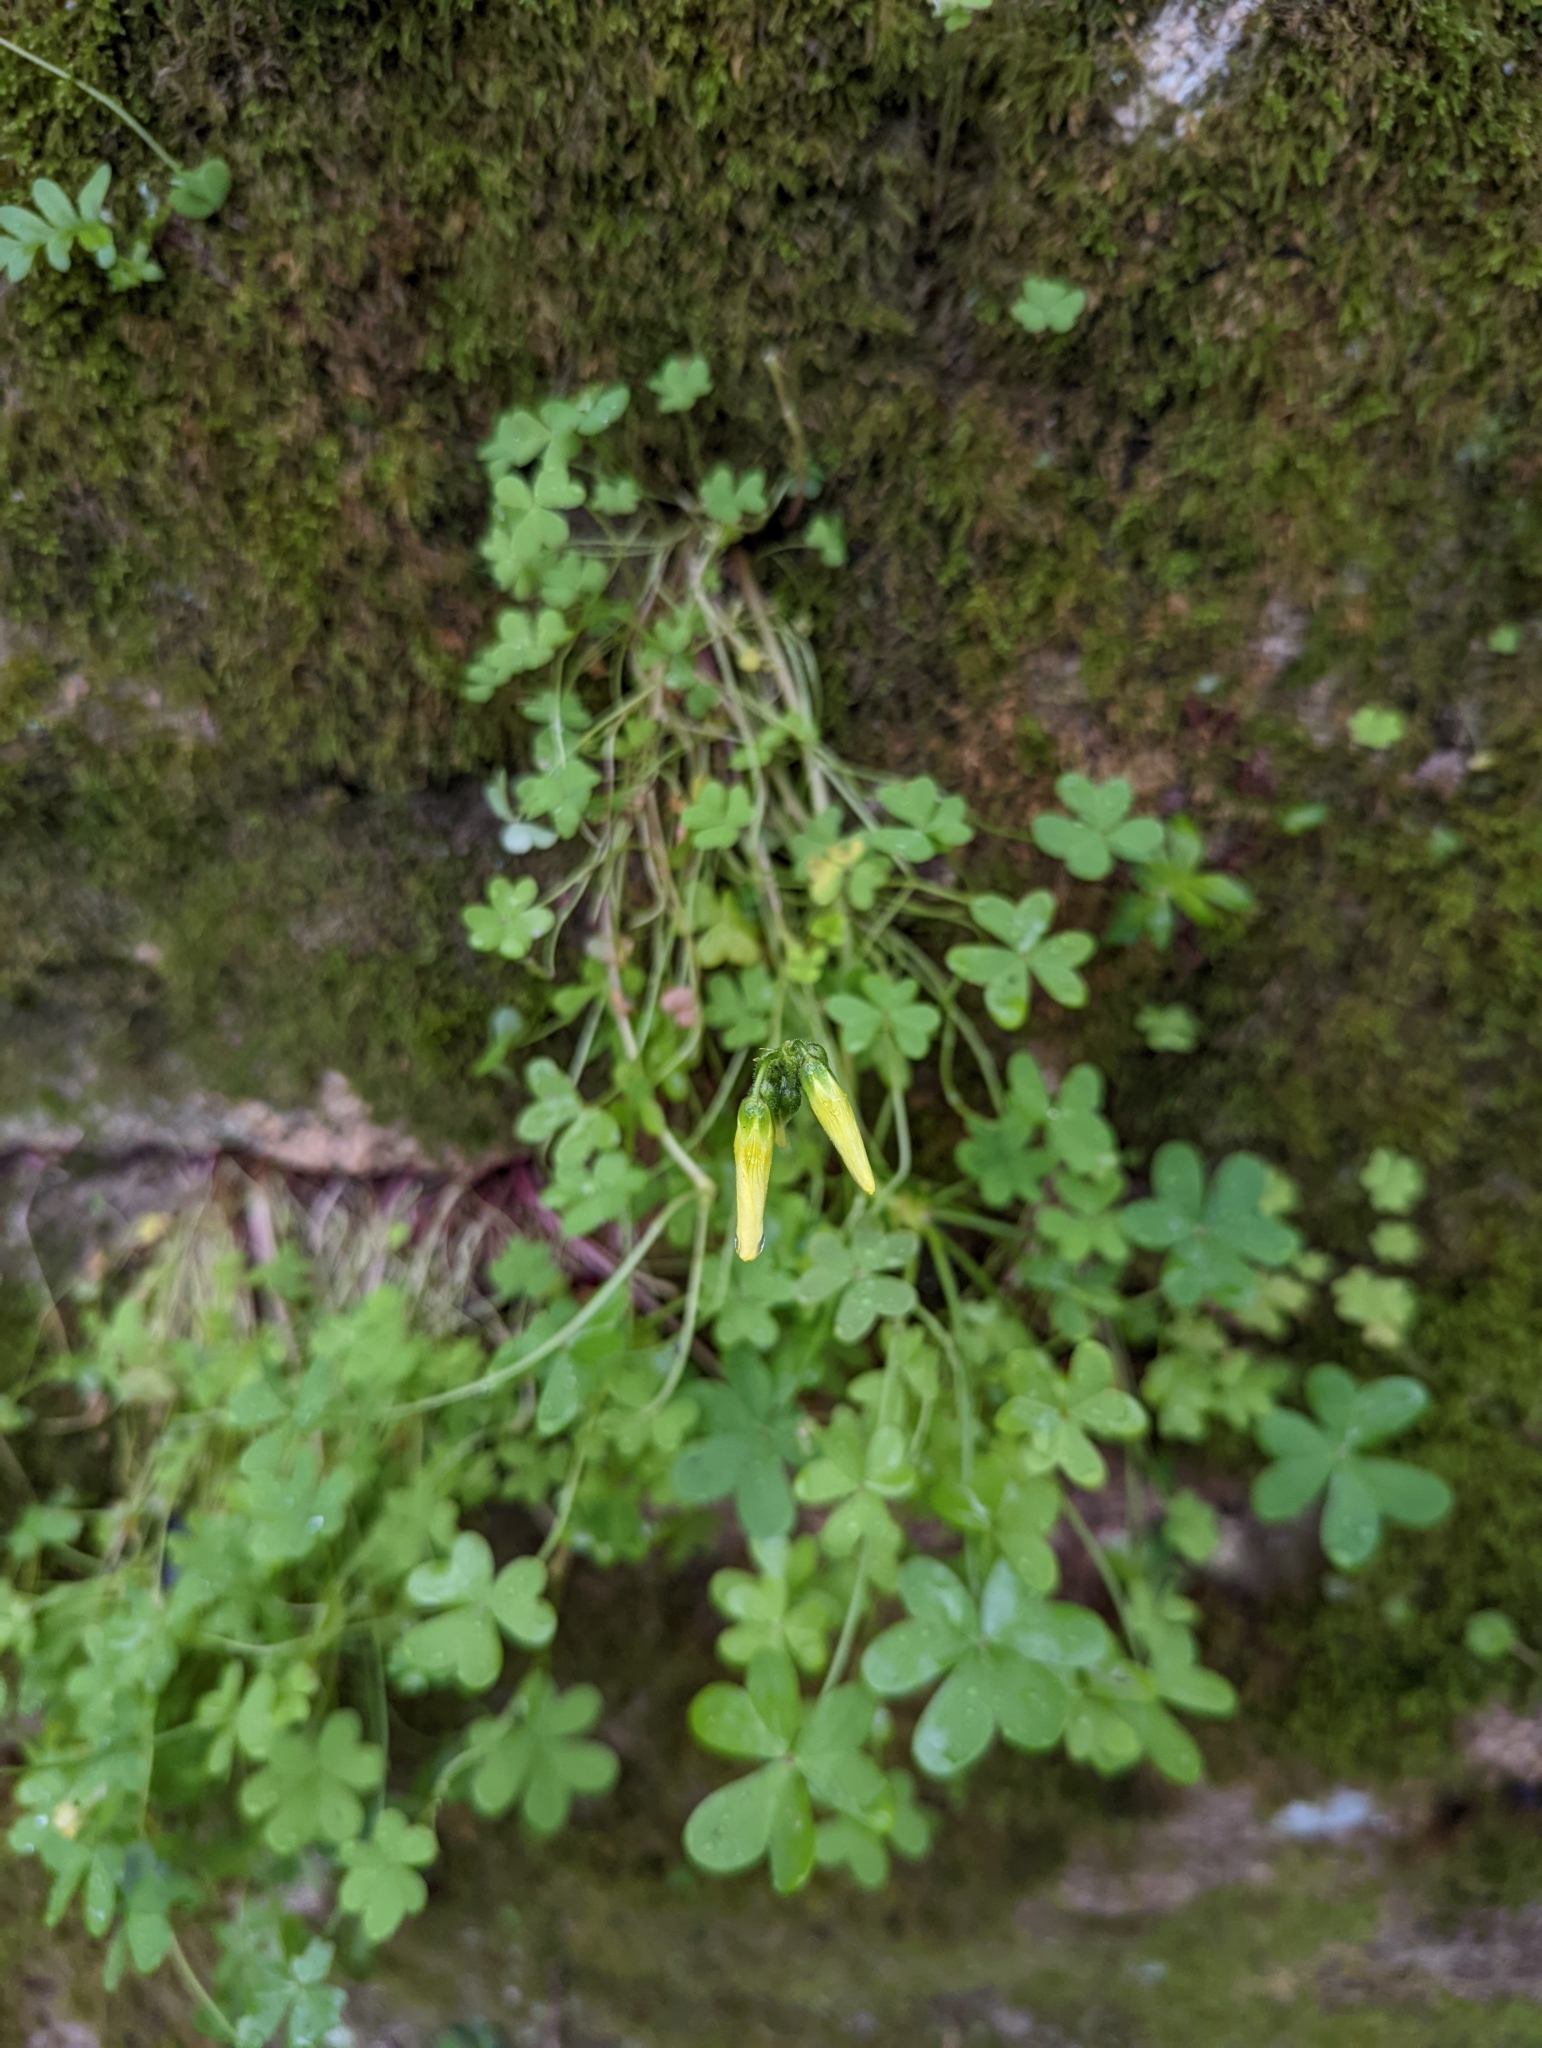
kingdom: Plantae
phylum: Tracheophyta
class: Magnoliopsida
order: Oxalidales
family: Oxalidaceae
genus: Oxalis
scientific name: Oxalis pes-caprae
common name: Bermuda-buttercup
